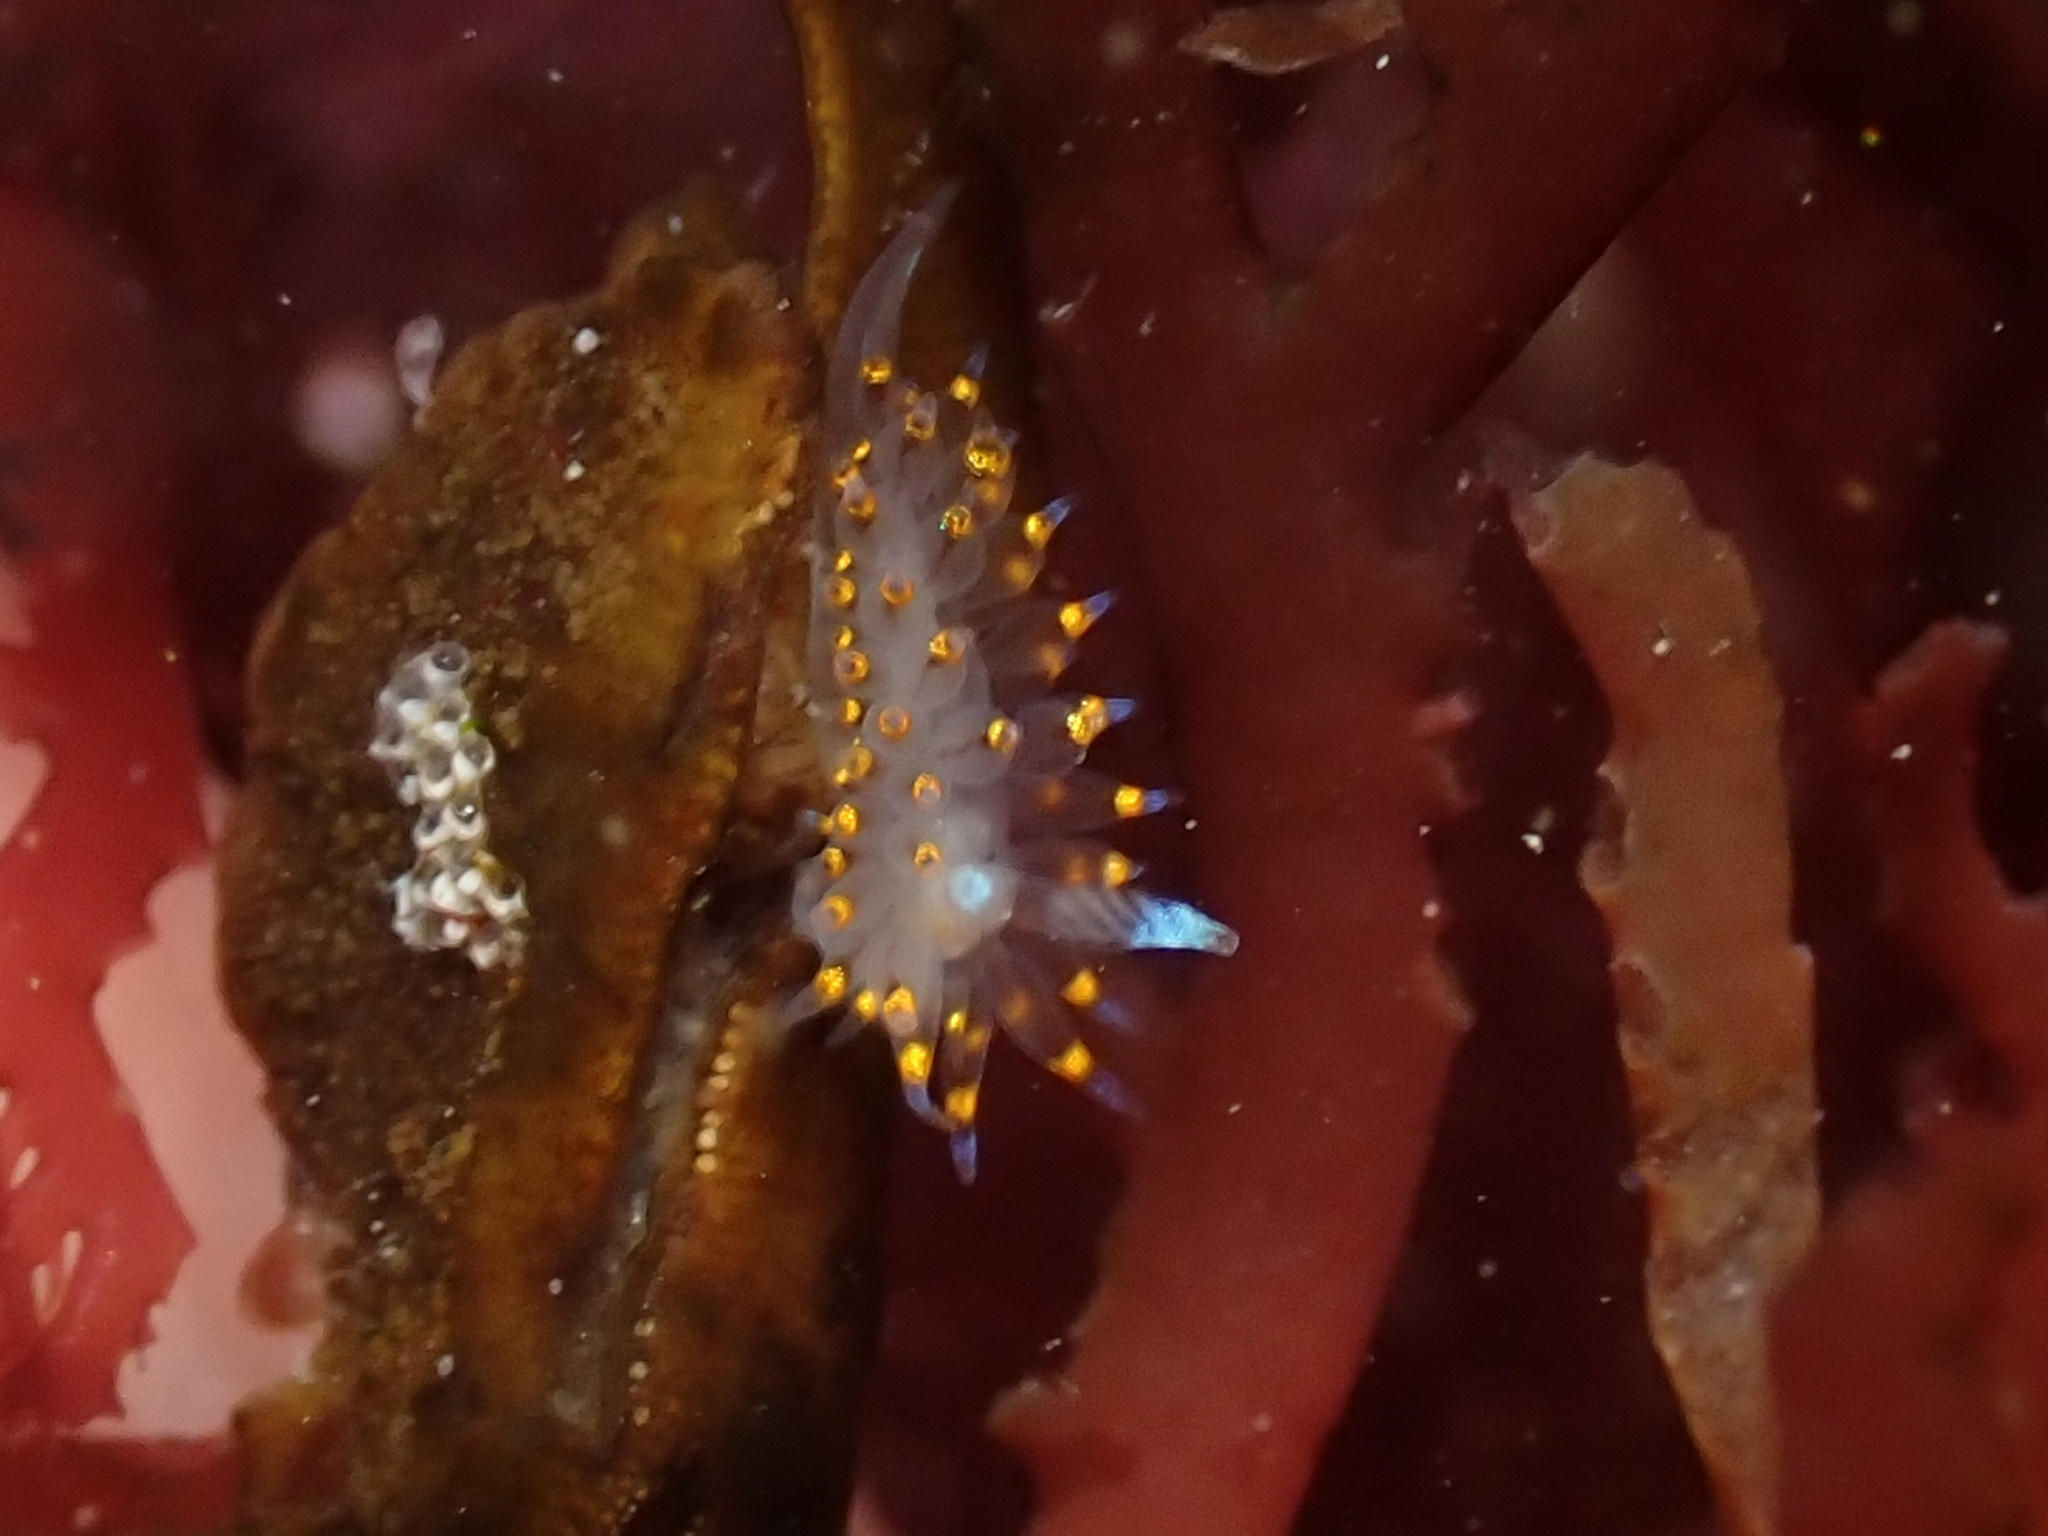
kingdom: Animalia
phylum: Mollusca
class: Gastropoda
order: Nudibranchia
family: Janolidae
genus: Antiopella
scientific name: Antiopella barbarensis
